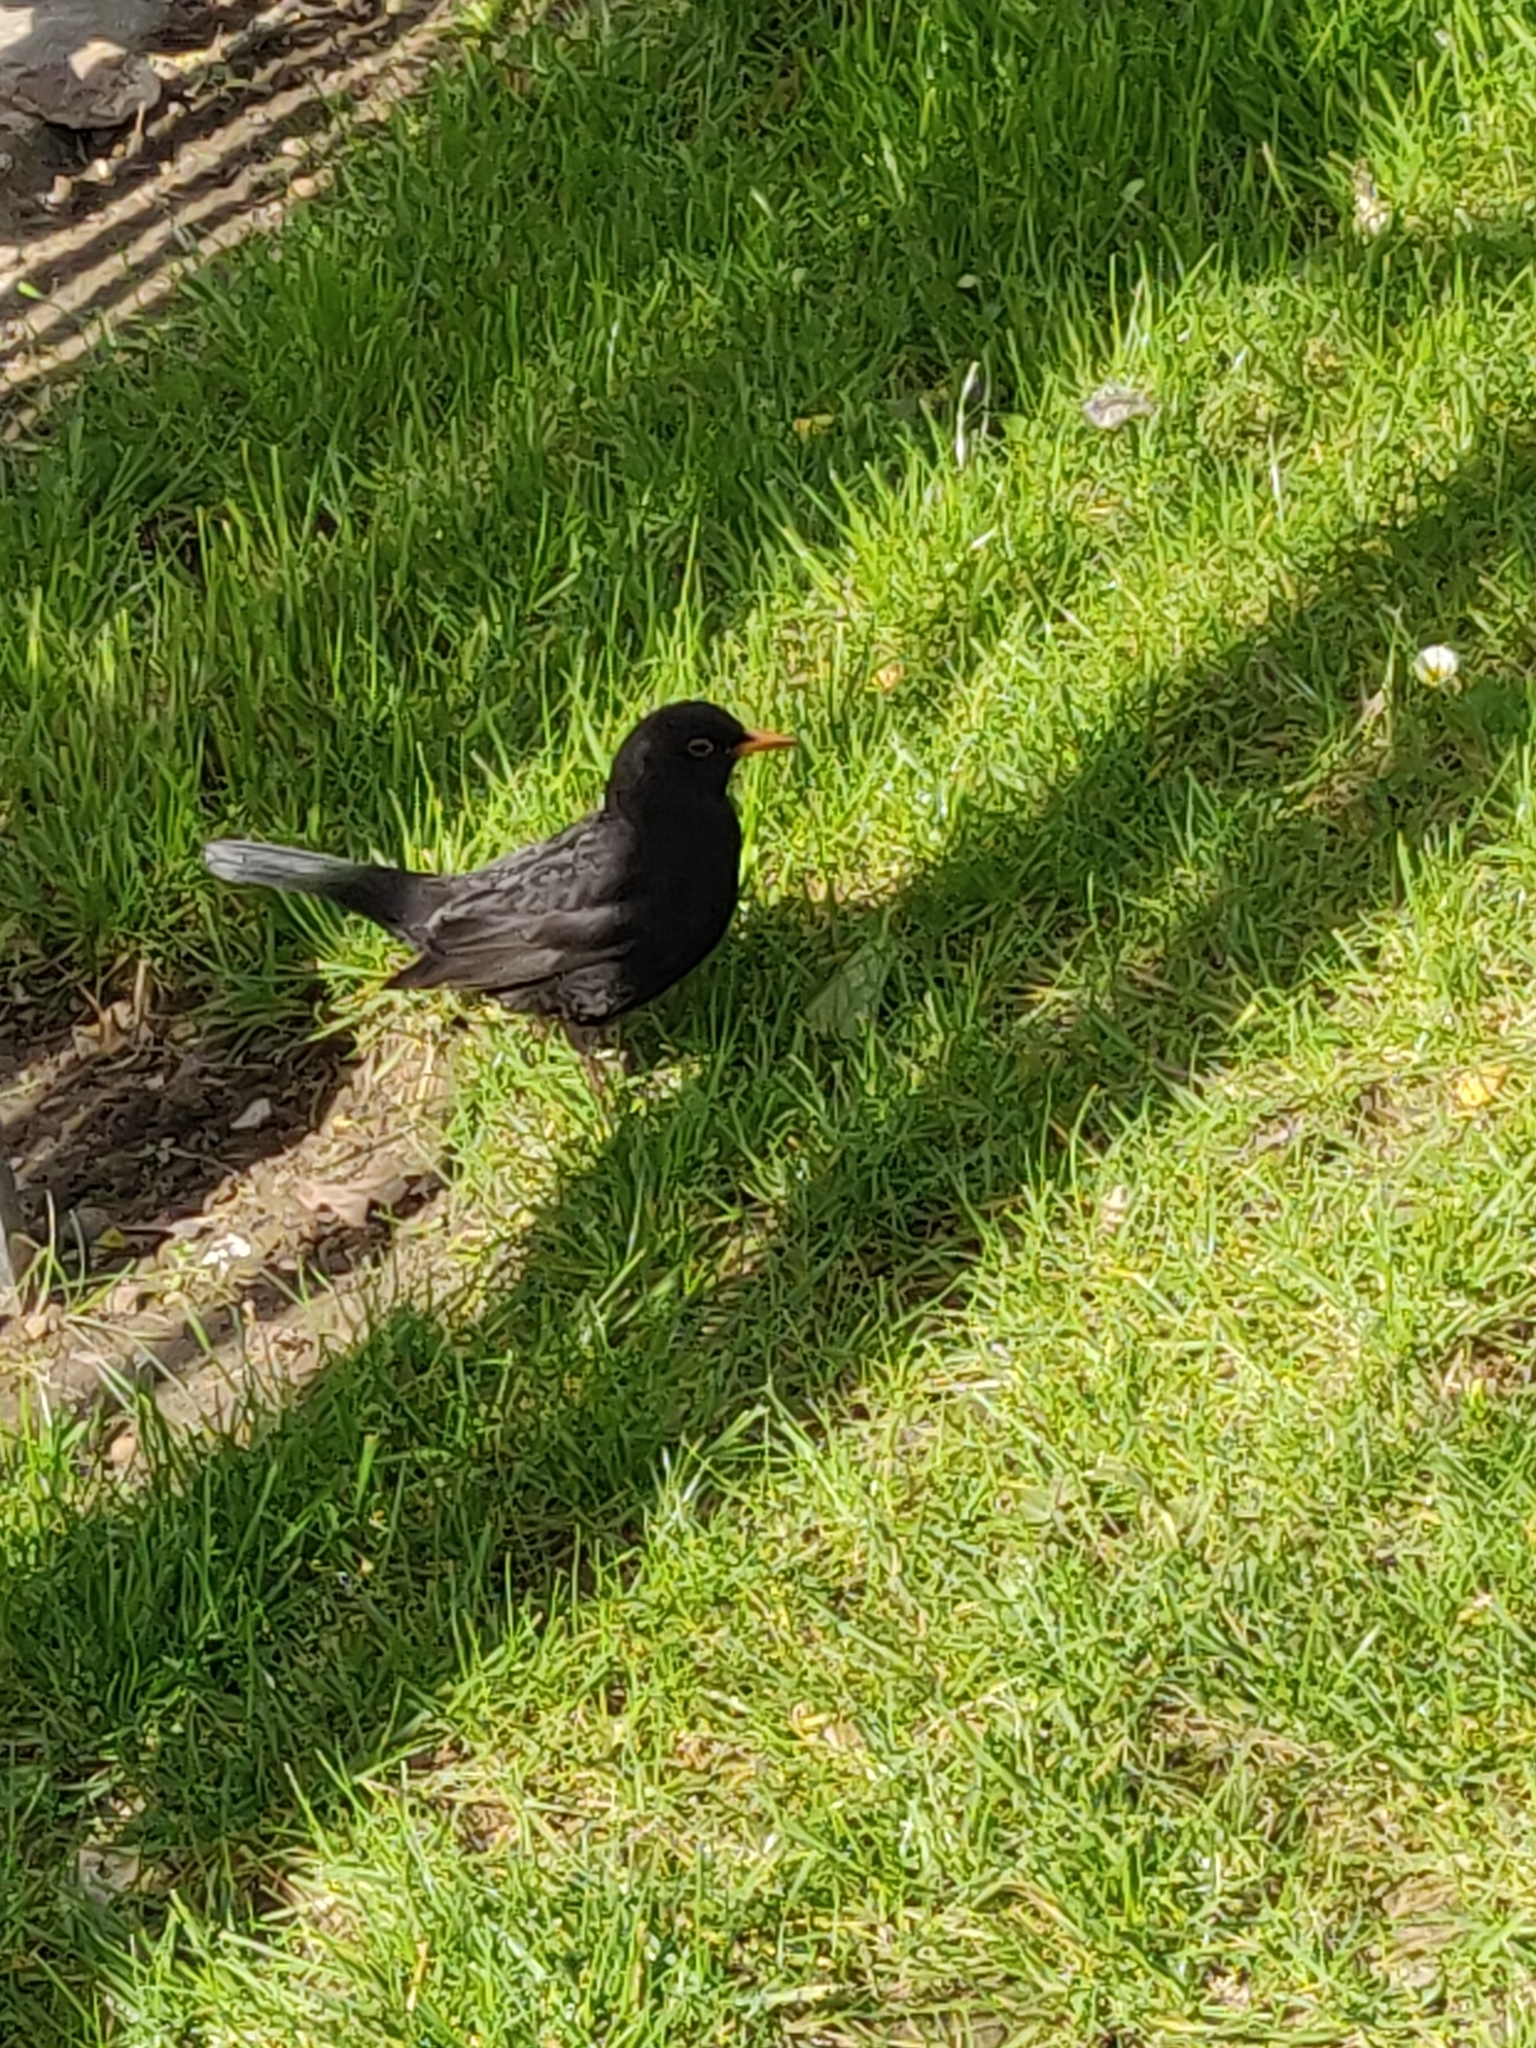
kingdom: Animalia
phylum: Chordata
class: Aves
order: Passeriformes
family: Turdidae
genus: Turdus
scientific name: Turdus merula
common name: Common blackbird
